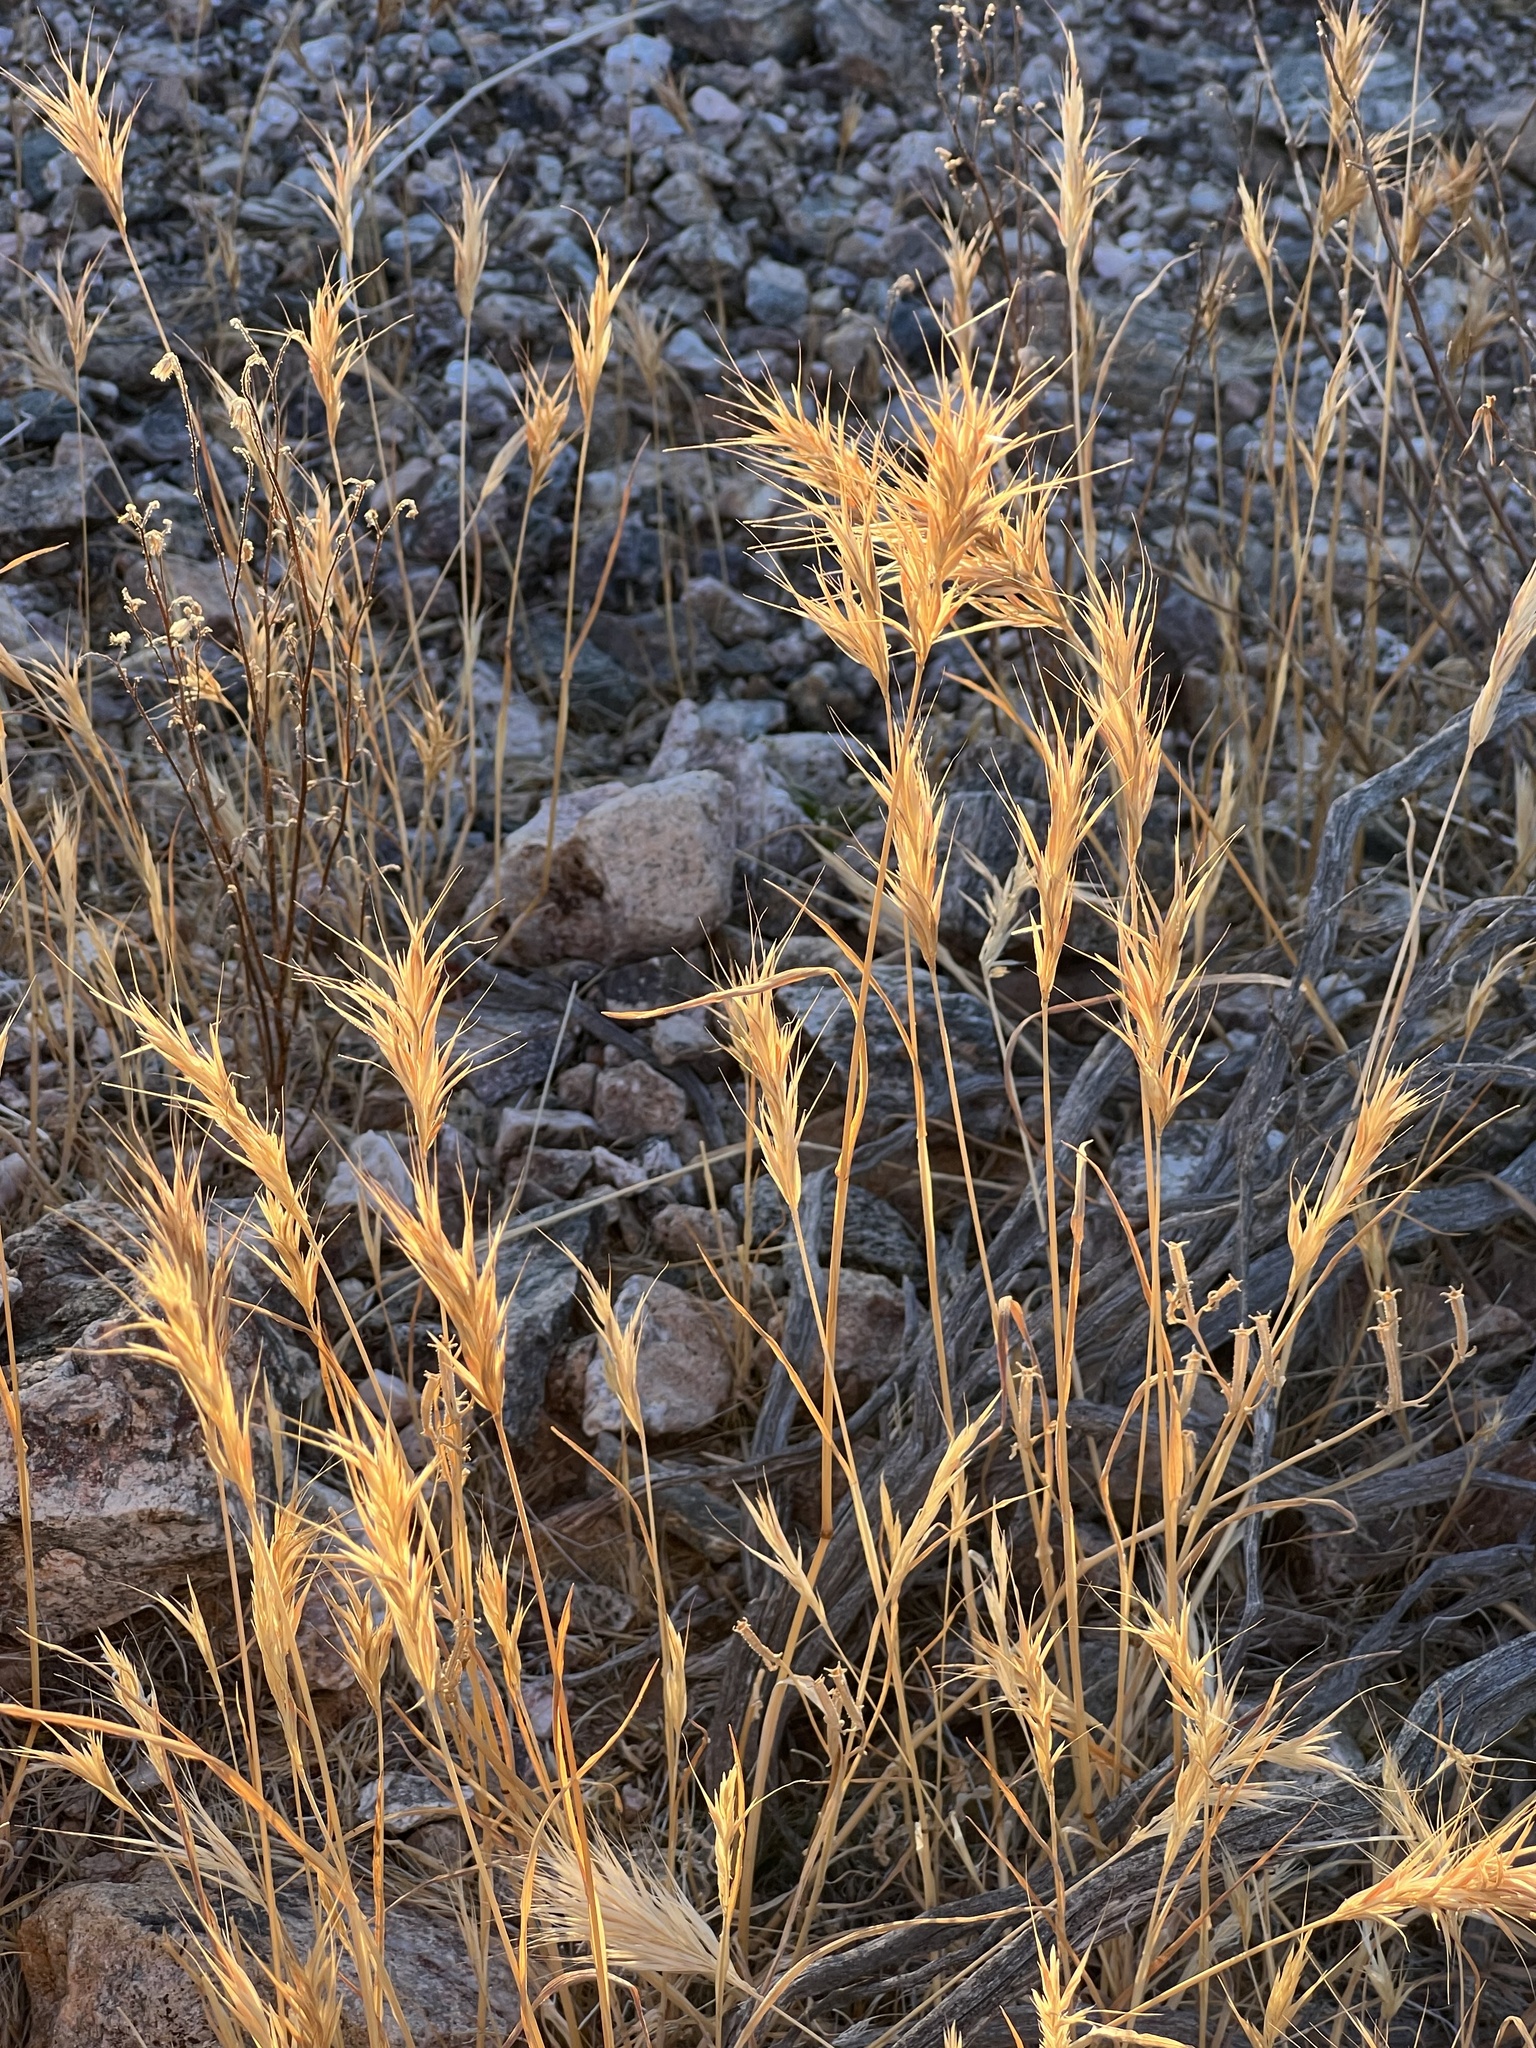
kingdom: Plantae
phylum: Tracheophyta
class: Liliopsida
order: Poales
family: Poaceae
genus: Bromus
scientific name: Bromus rubens
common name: Red brome
